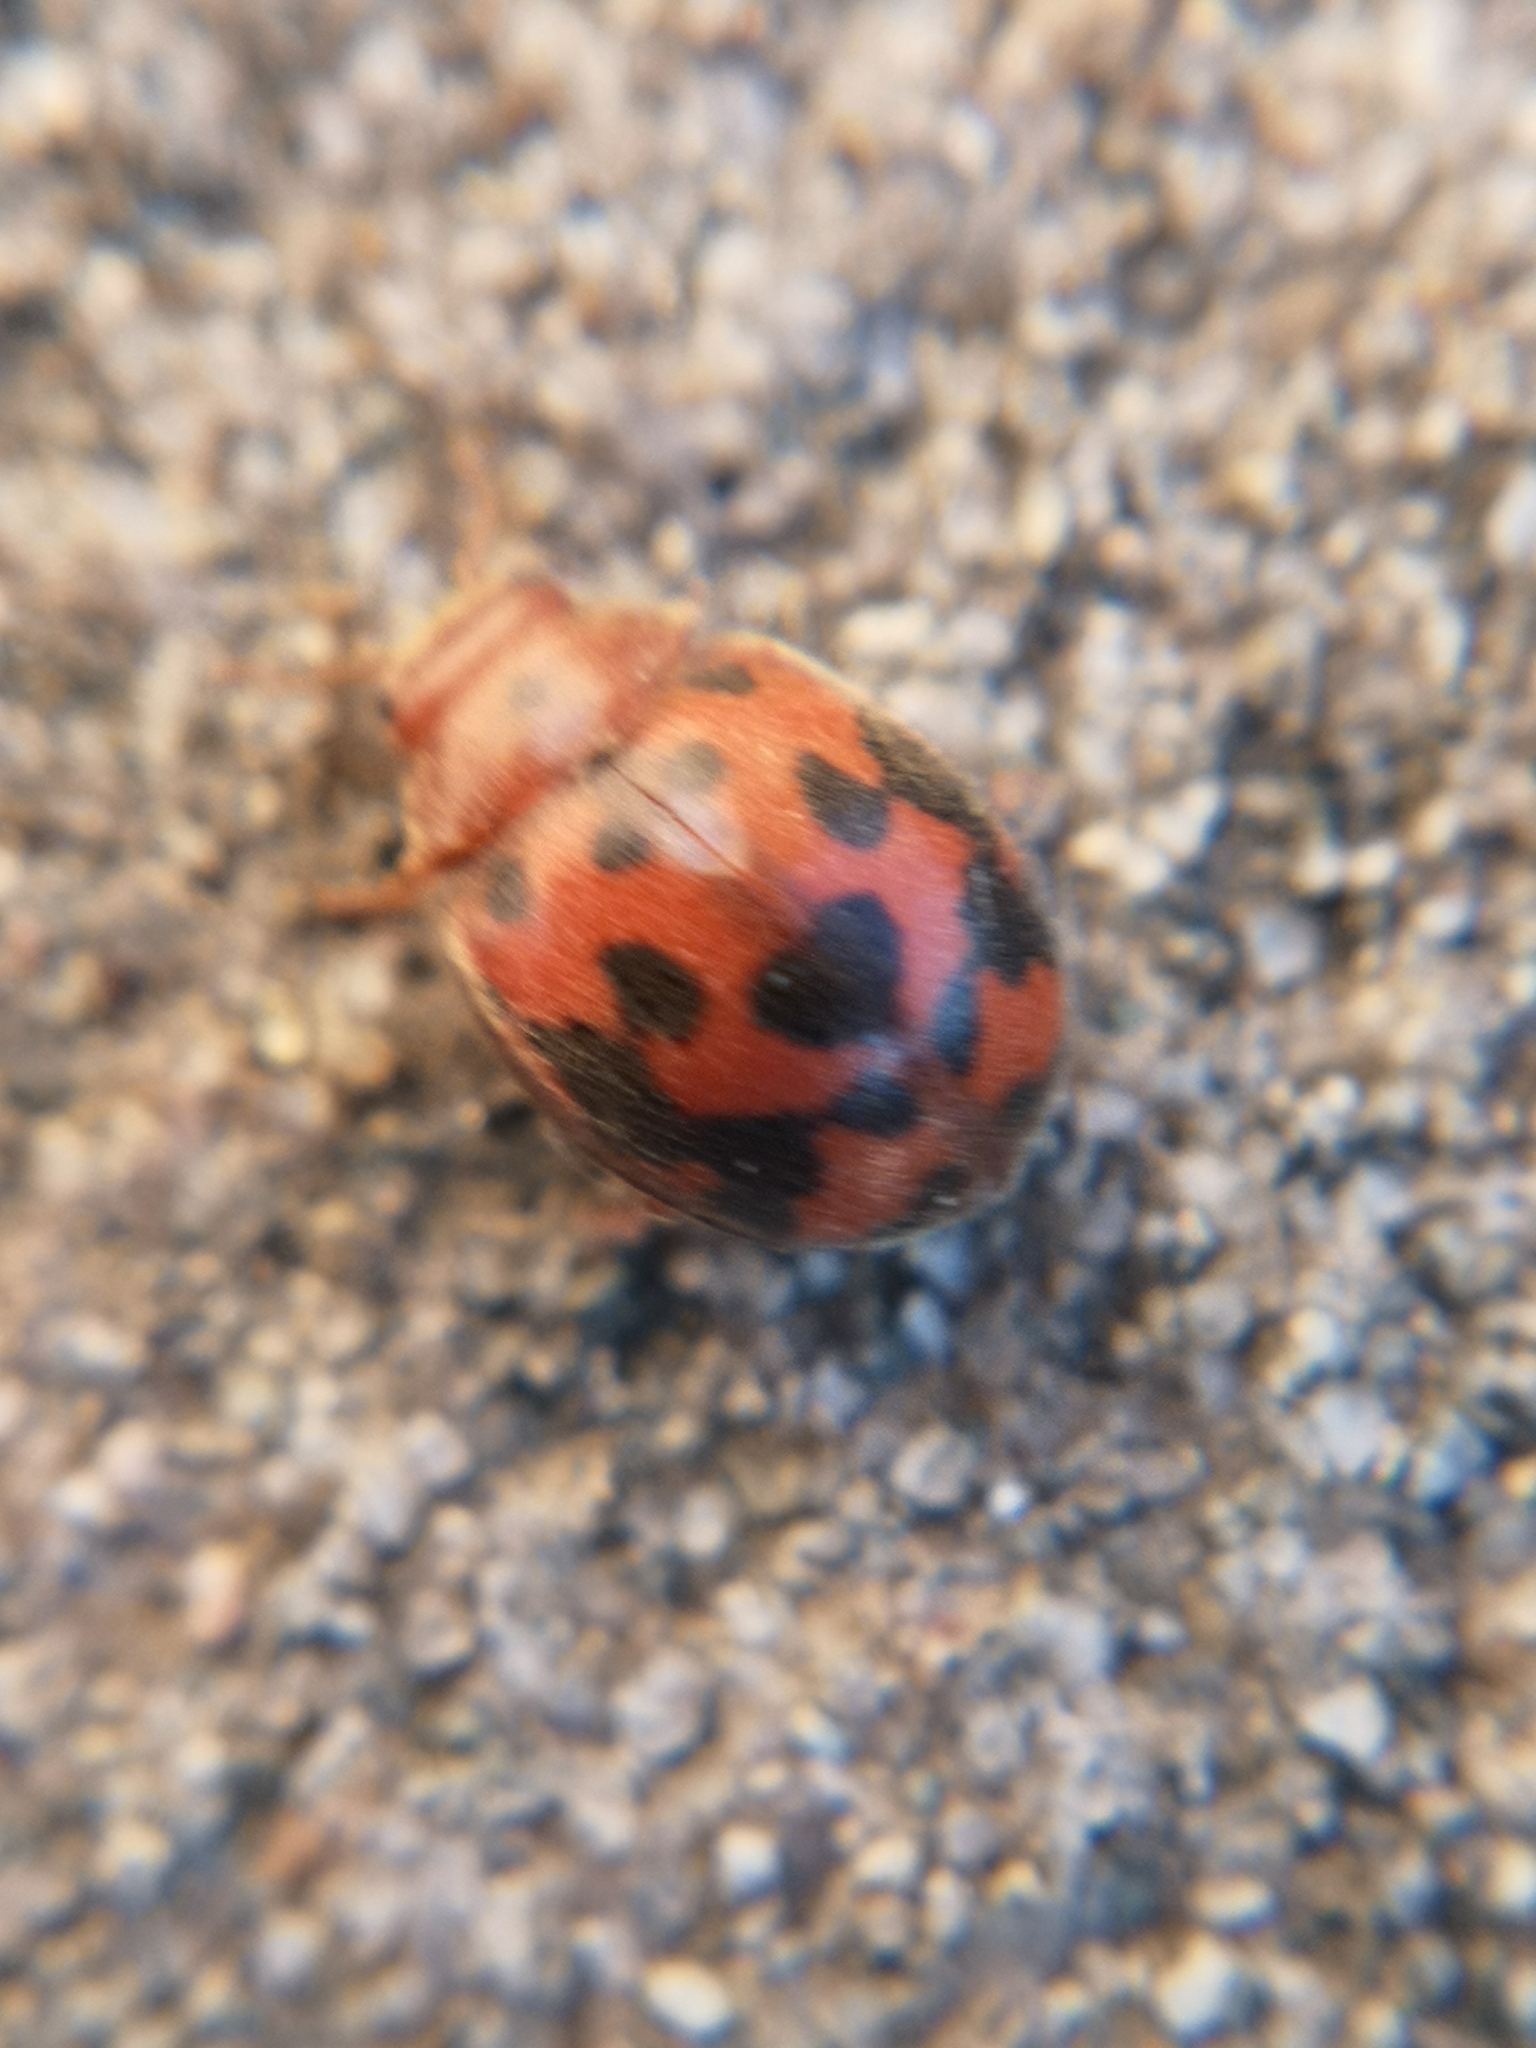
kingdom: Animalia
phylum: Arthropoda
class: Insecta
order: Coleoptera
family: Coccinellidae
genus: Subcoccinella
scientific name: Subcoccinella vigintiquatuorpunctata
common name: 24-spot ladybird
